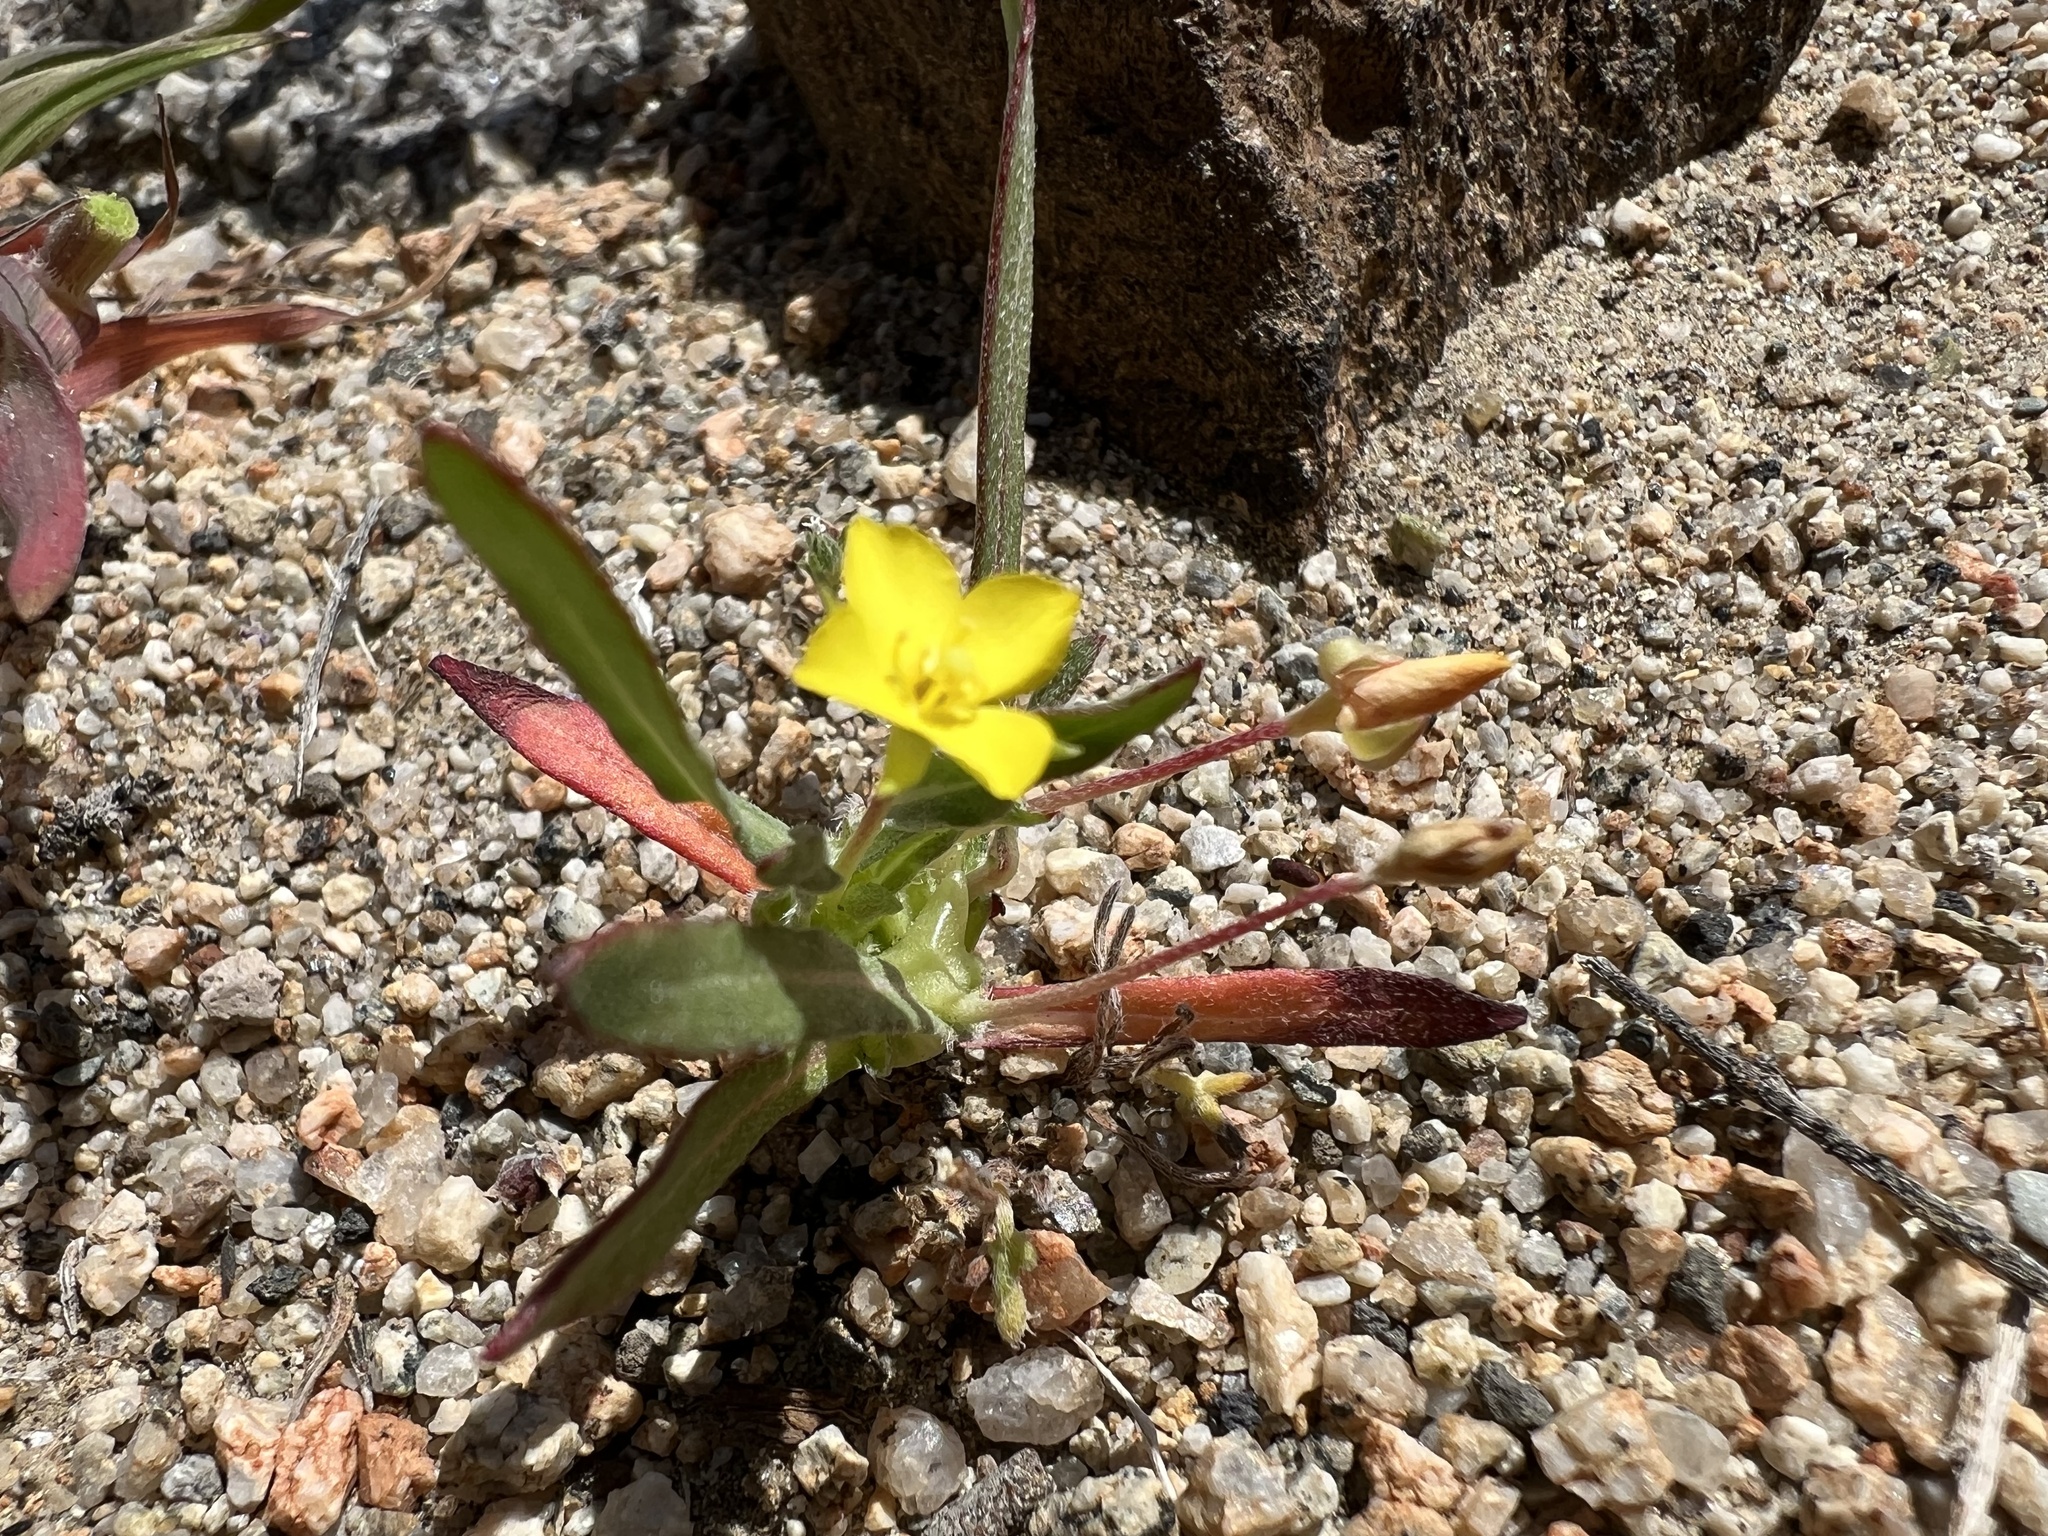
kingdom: Plantae
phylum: Tracheophyta
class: Magnoliopsida
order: Myrtales
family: Onagraceae
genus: Tetrapteron
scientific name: Tetrapteron palmeri
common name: Palmer's evening primrose
